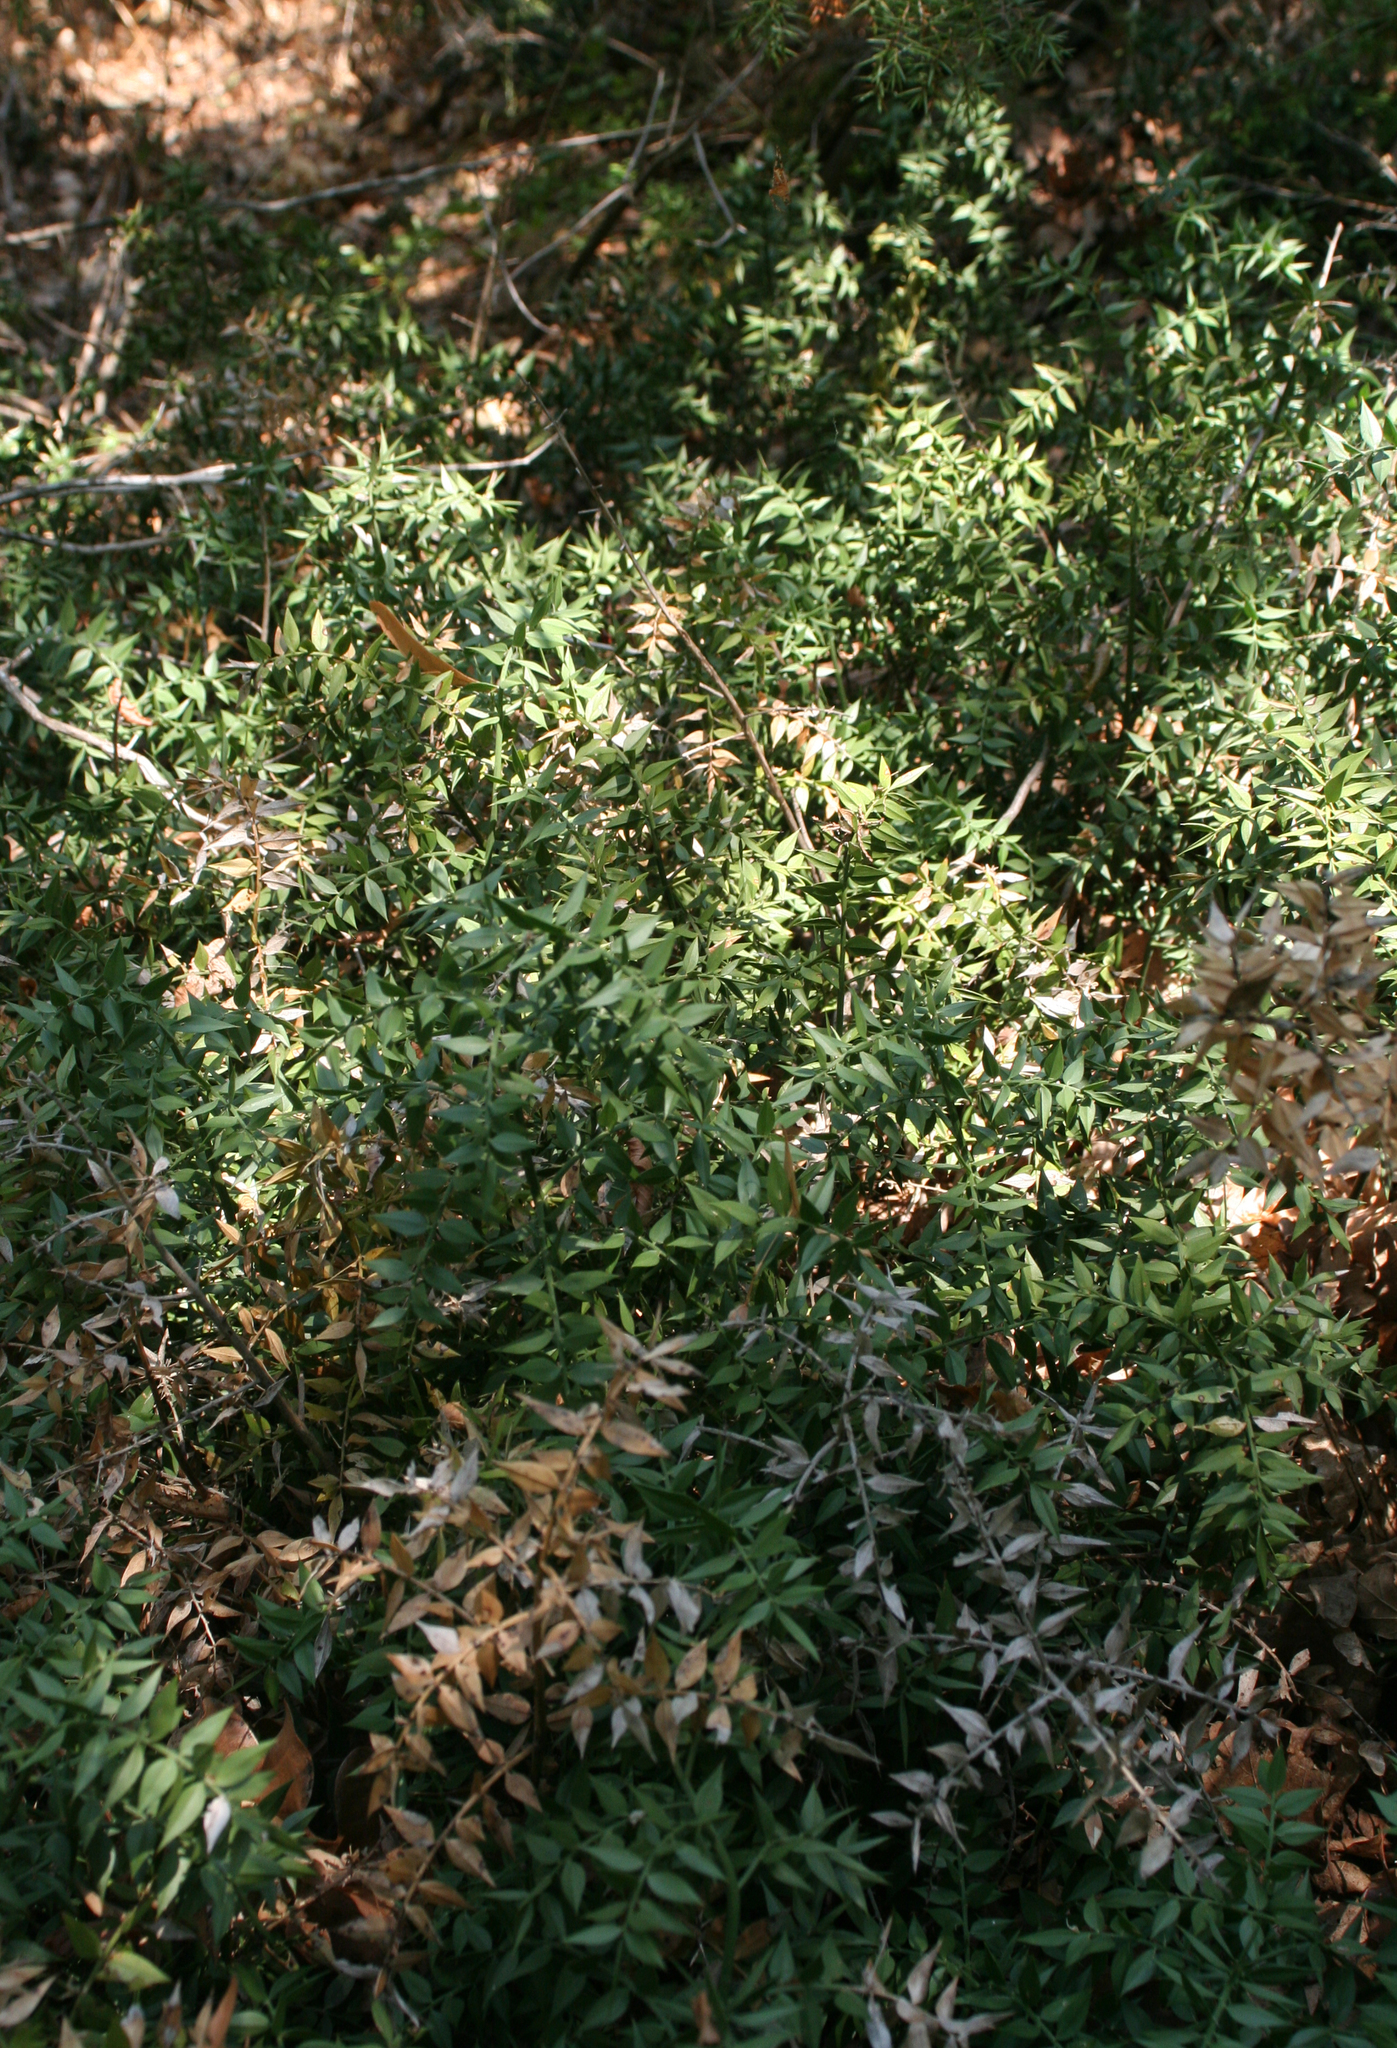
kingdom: Plantae
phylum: Tracheophyta
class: Liliopsida
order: Asparagales
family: Asparagaceae
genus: Ruscus
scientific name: Ruscus aculeatus
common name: Butcher's-broom
